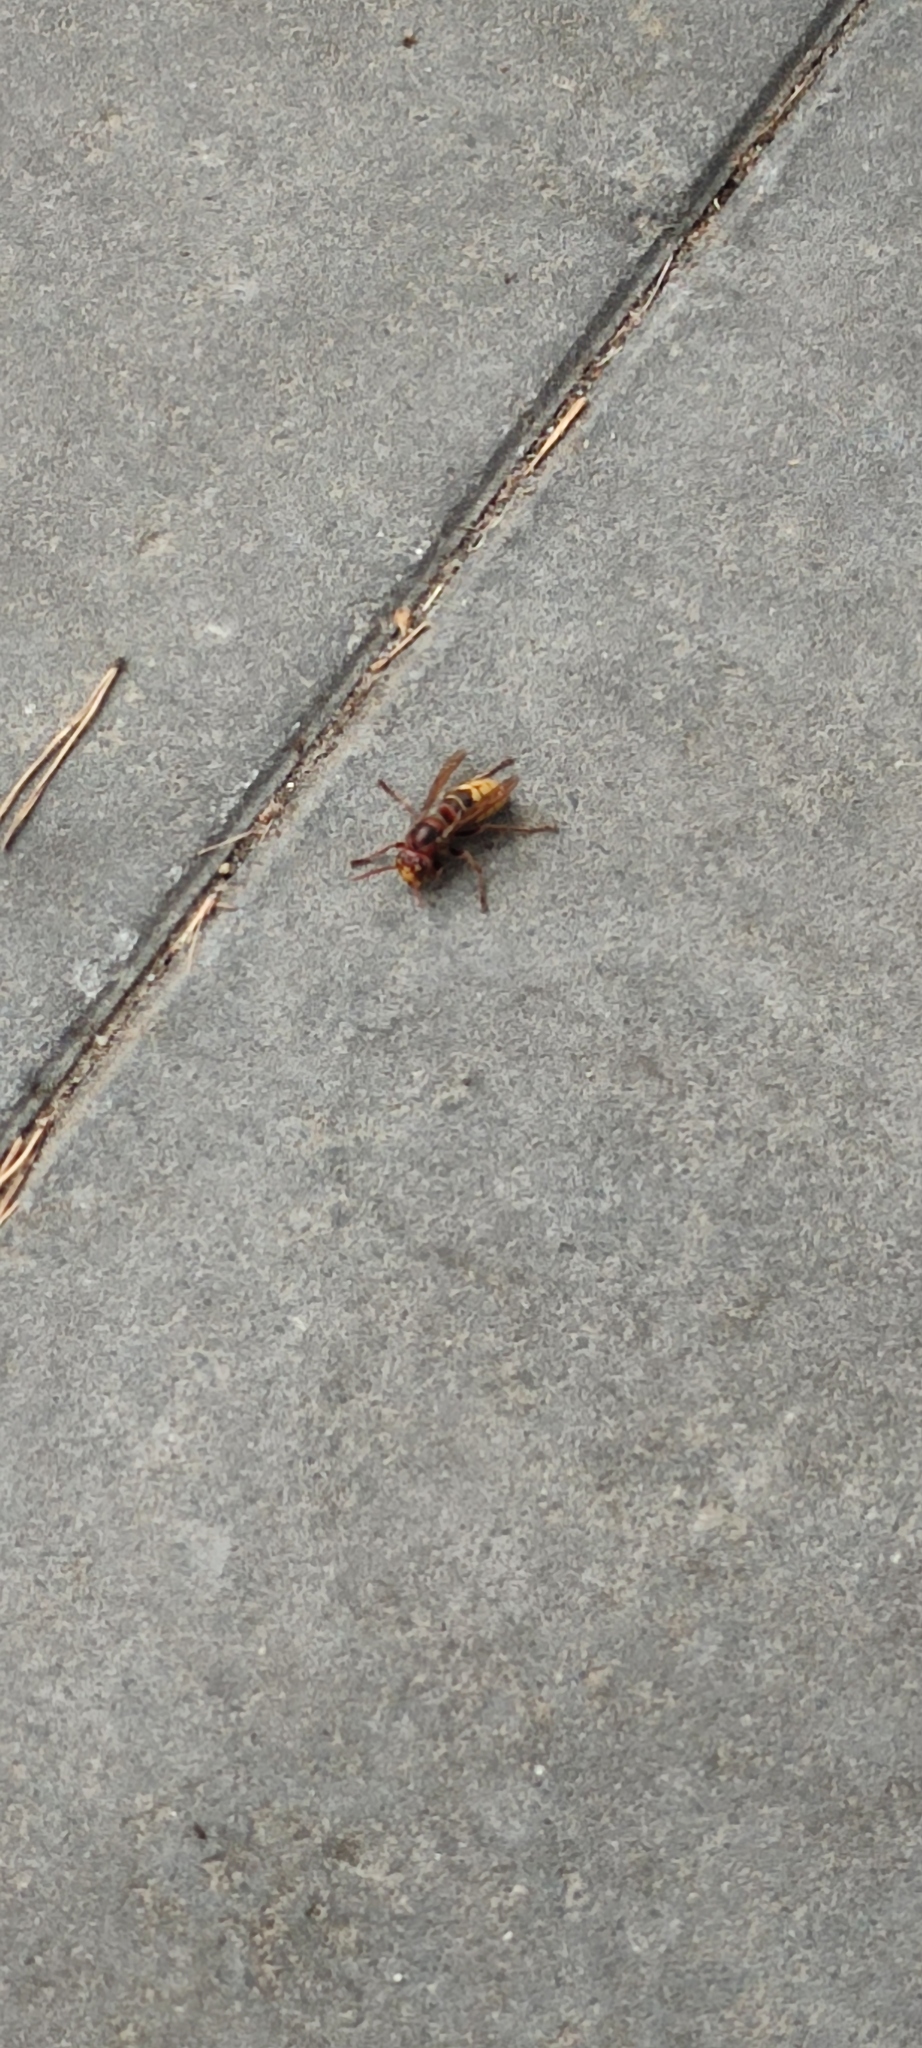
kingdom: Animalia
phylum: Arthropoda
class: Insecta
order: Hymenoptera
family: Vespidae
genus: Vespa
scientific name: Vespa crabro
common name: Hornet
